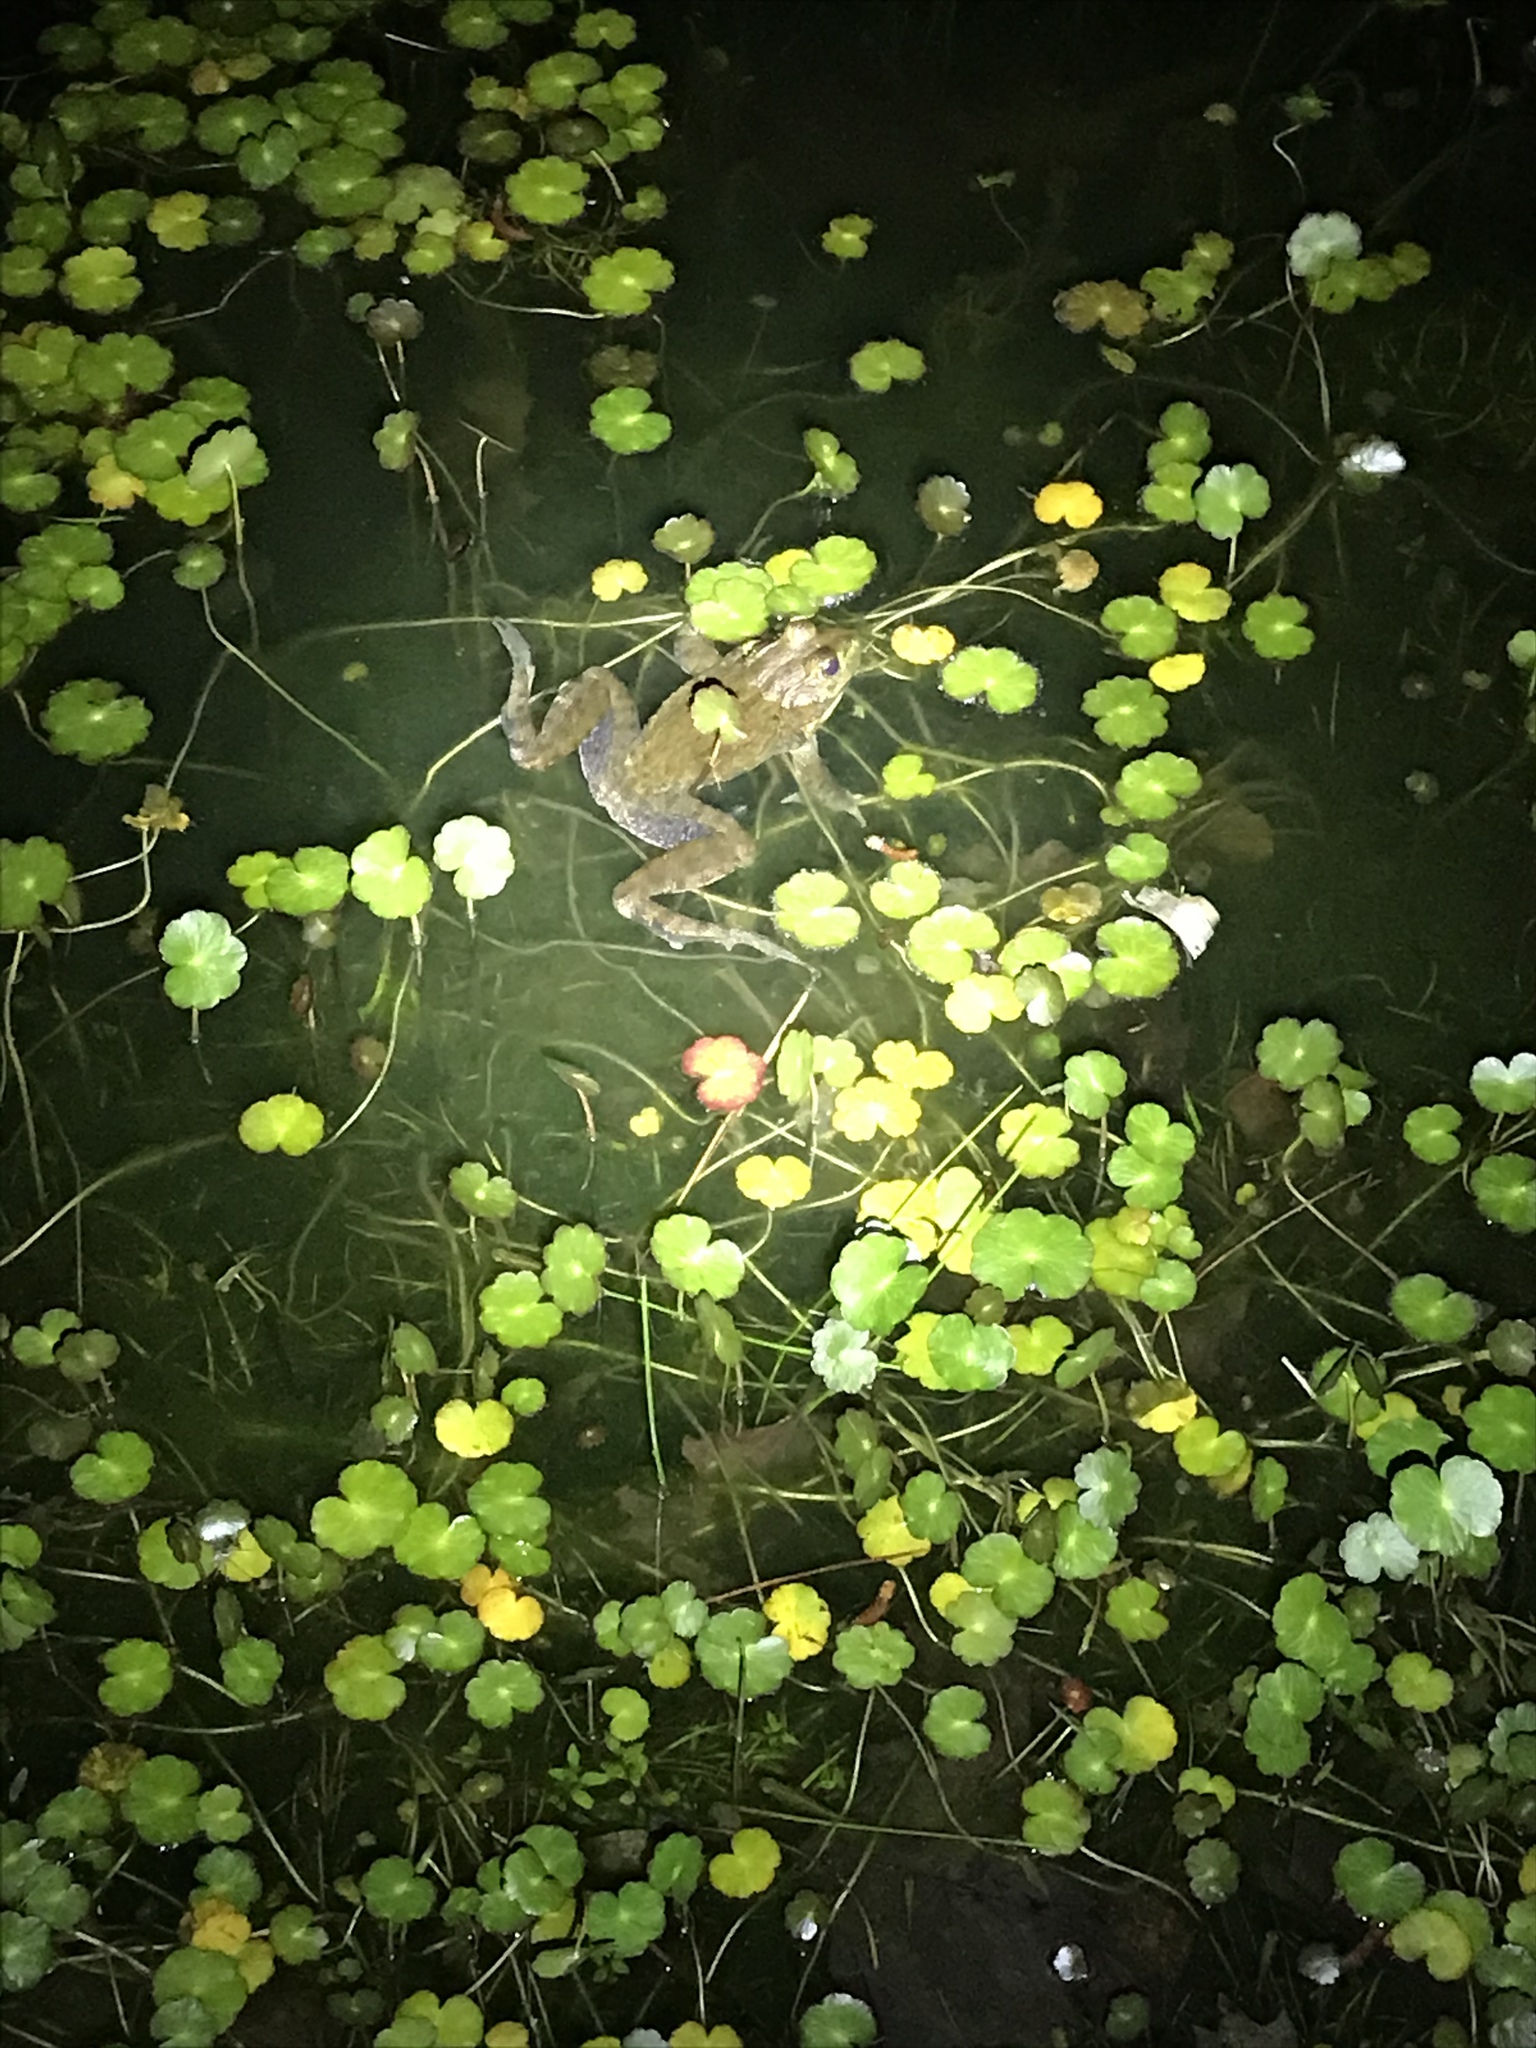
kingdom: Animalia
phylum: Chordata
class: Amphibia
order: Anura
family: Ranidae
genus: Lithobates
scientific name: Lithobates catesbeianus
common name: American bullfrog
